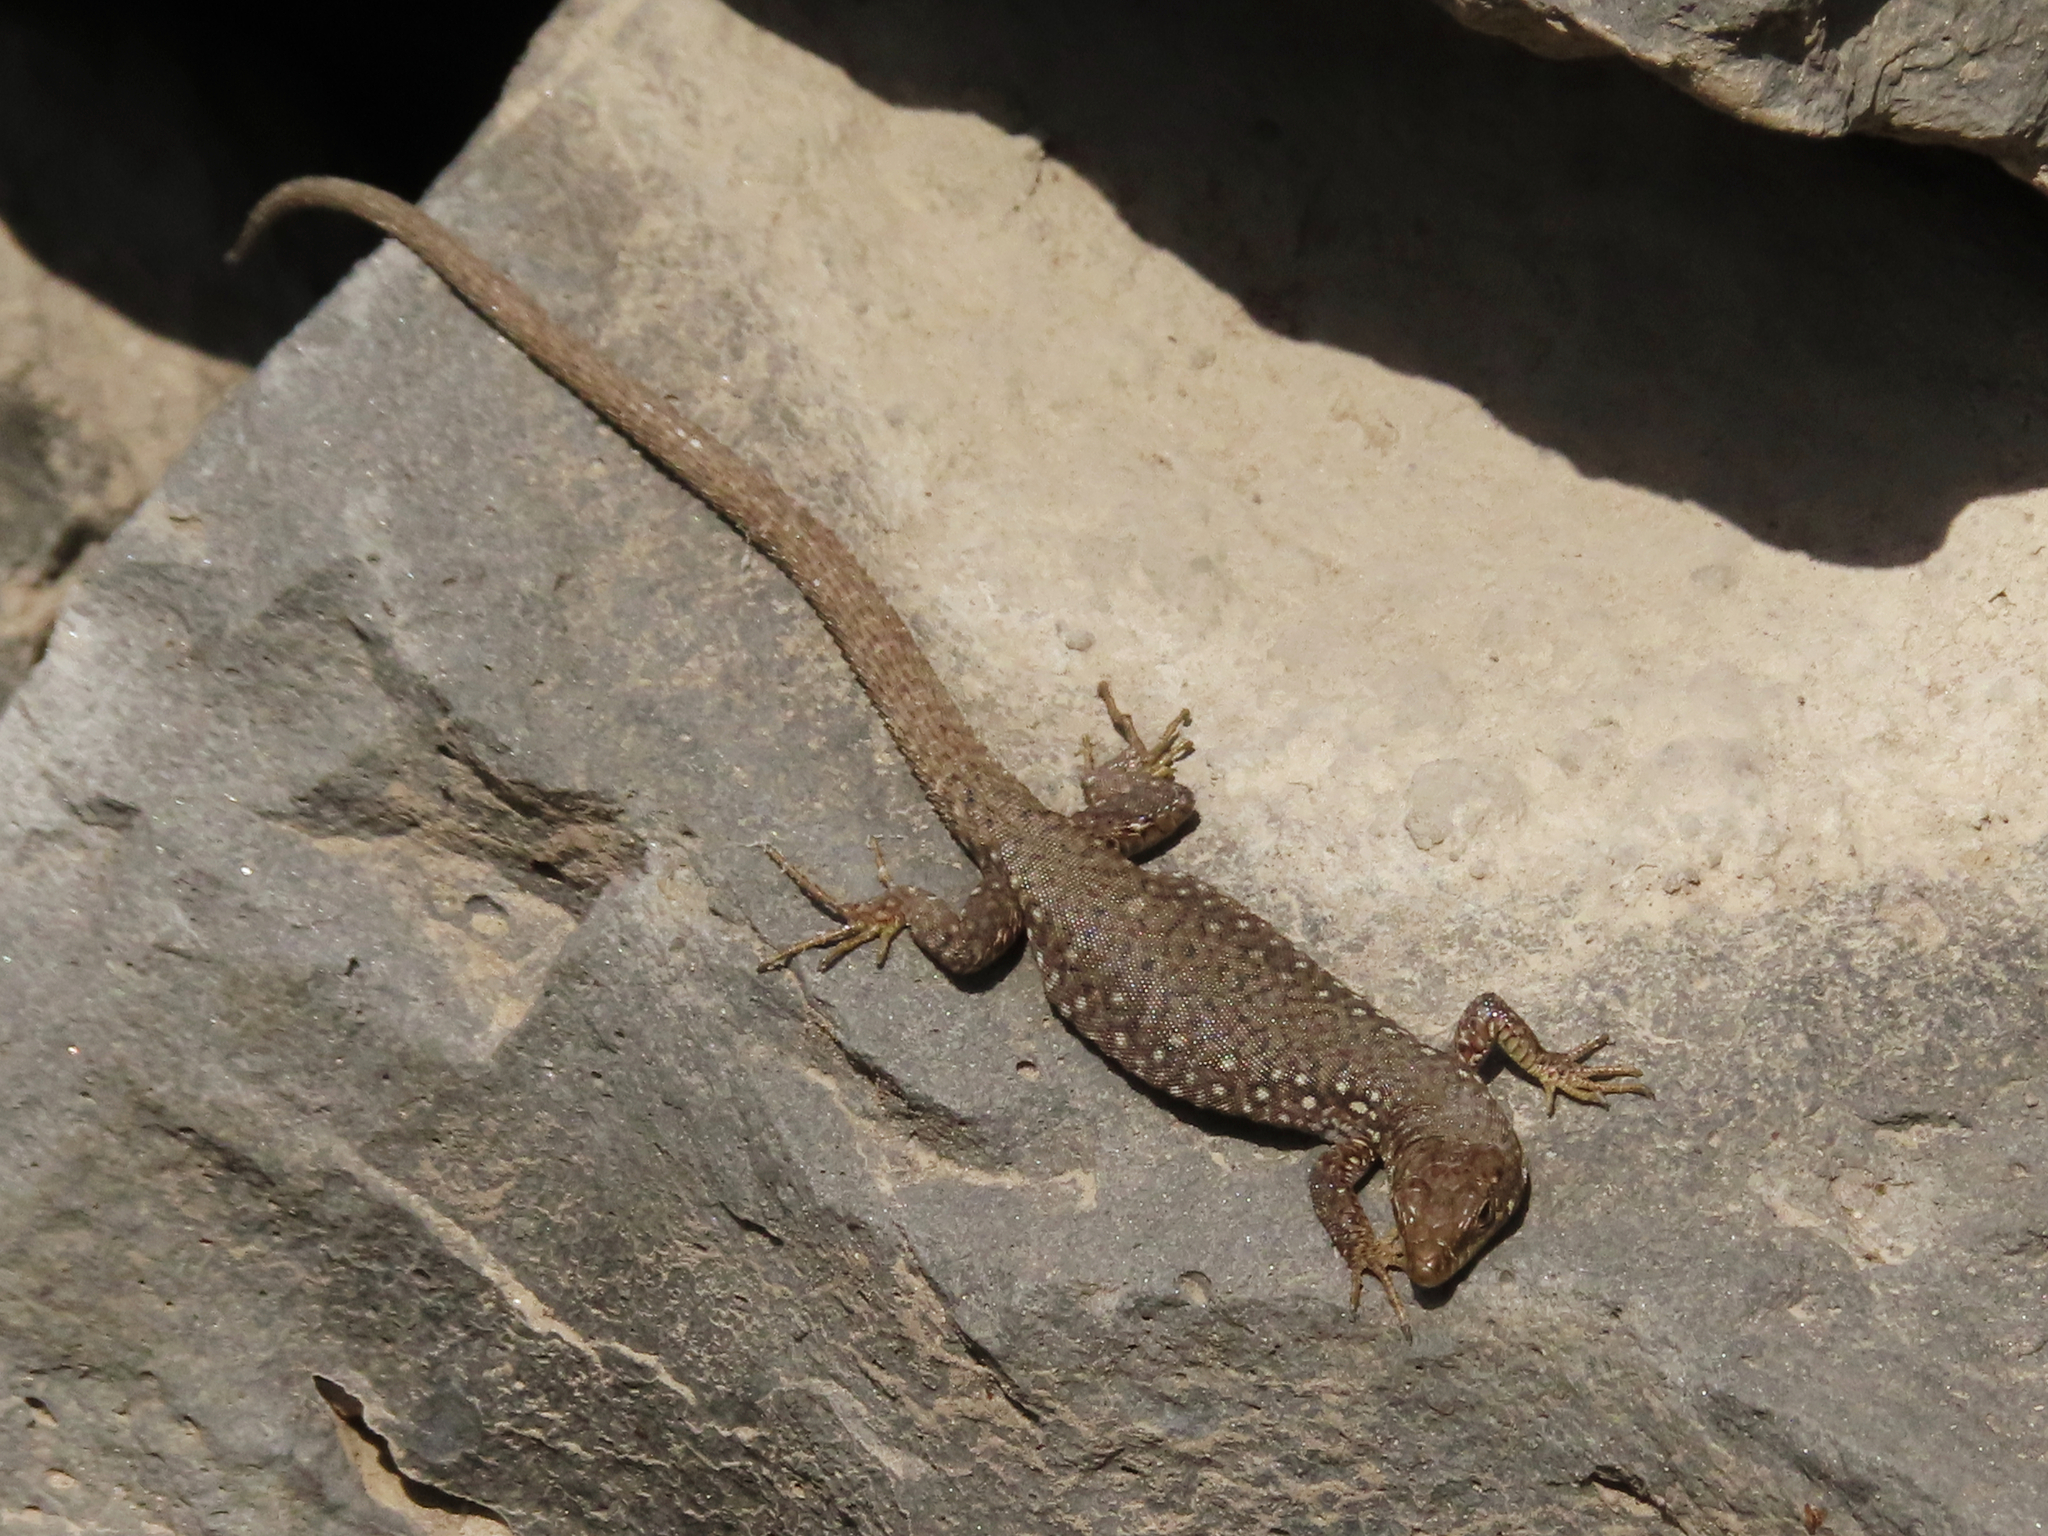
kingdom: Animalia
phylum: Chordata
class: Squamata
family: Lacertidae
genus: Darevskia
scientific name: Darevskia
